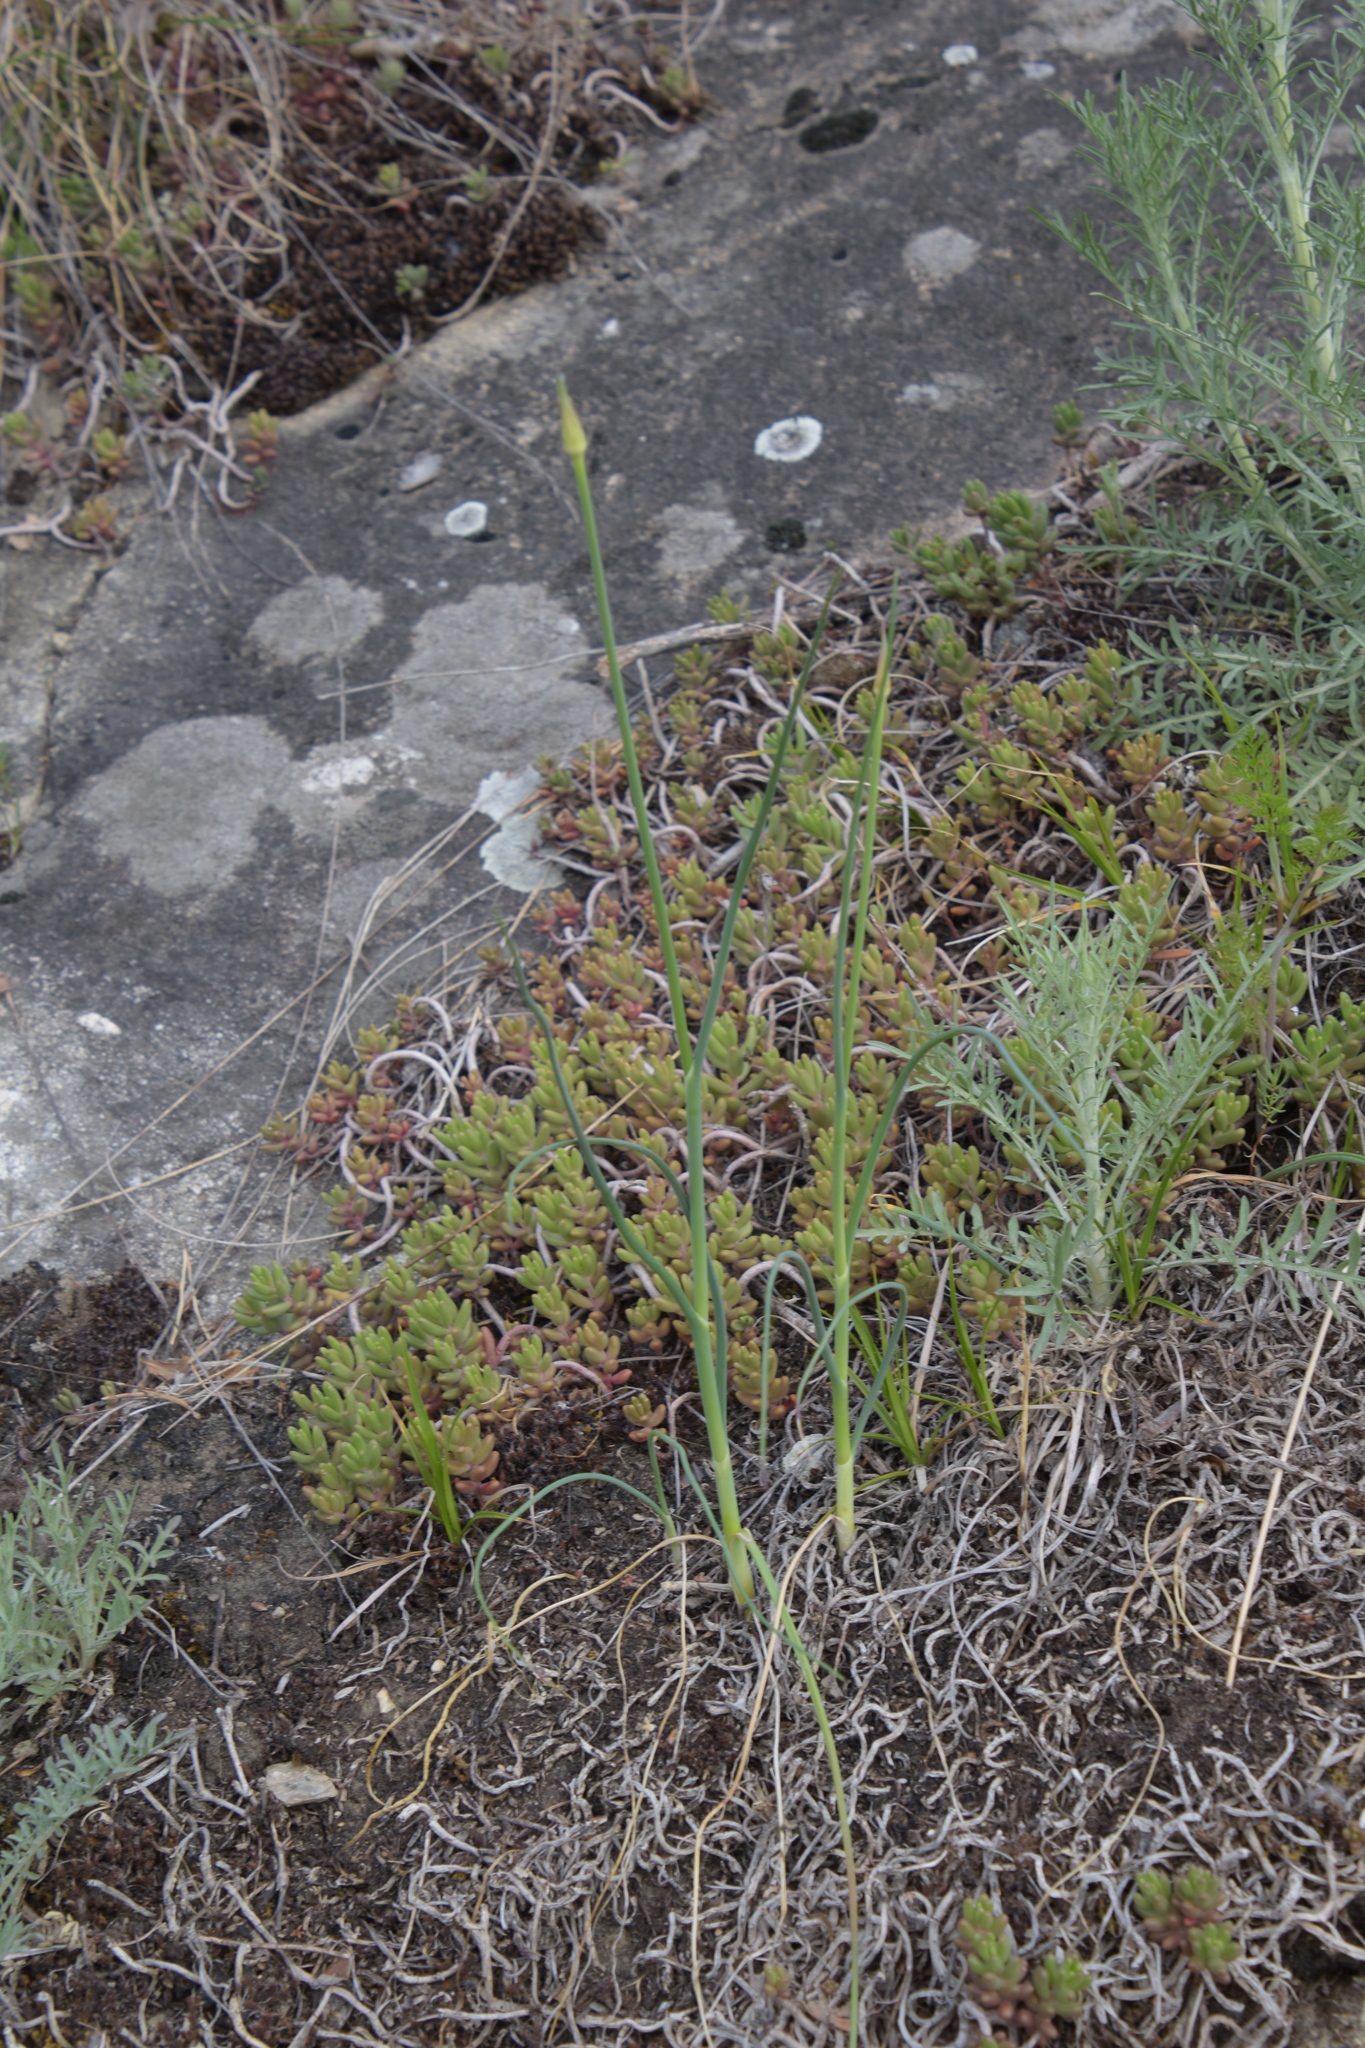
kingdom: Plantae
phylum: Tracheophyta
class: Magnoliopsida
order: Saxifragales
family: Crassulaceae
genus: Sedum
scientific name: Sedum album
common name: White stonecrop
